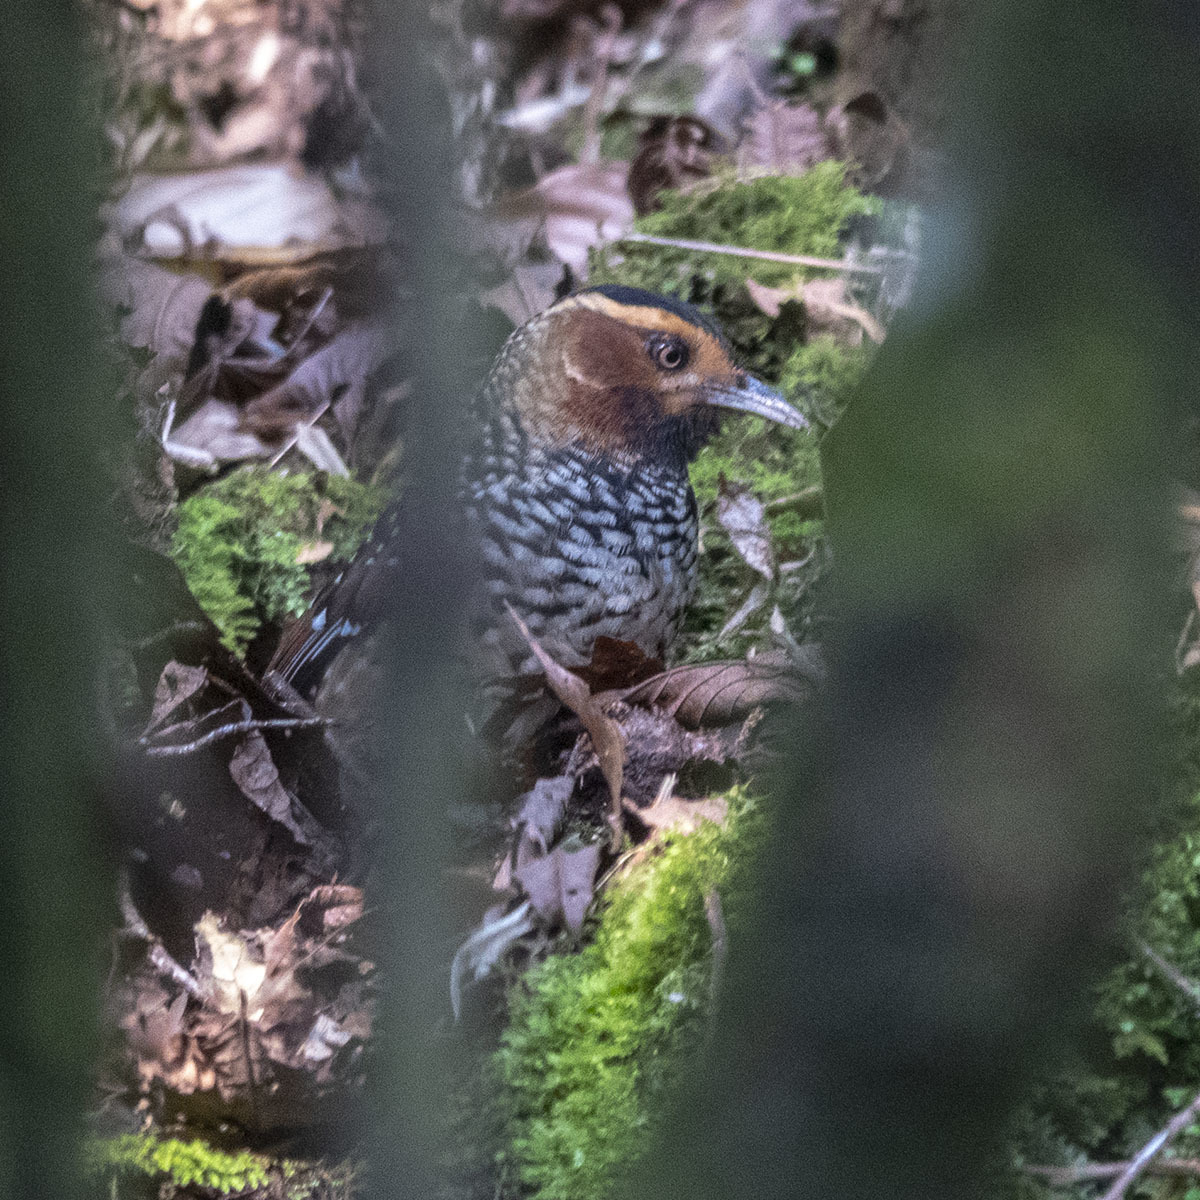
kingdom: Animalia
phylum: Chordata
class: Aves
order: Passeriformes
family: Leiothrichidae
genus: Garrulax
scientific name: Garrulax ocellatus
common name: Spotted laughingthrush
